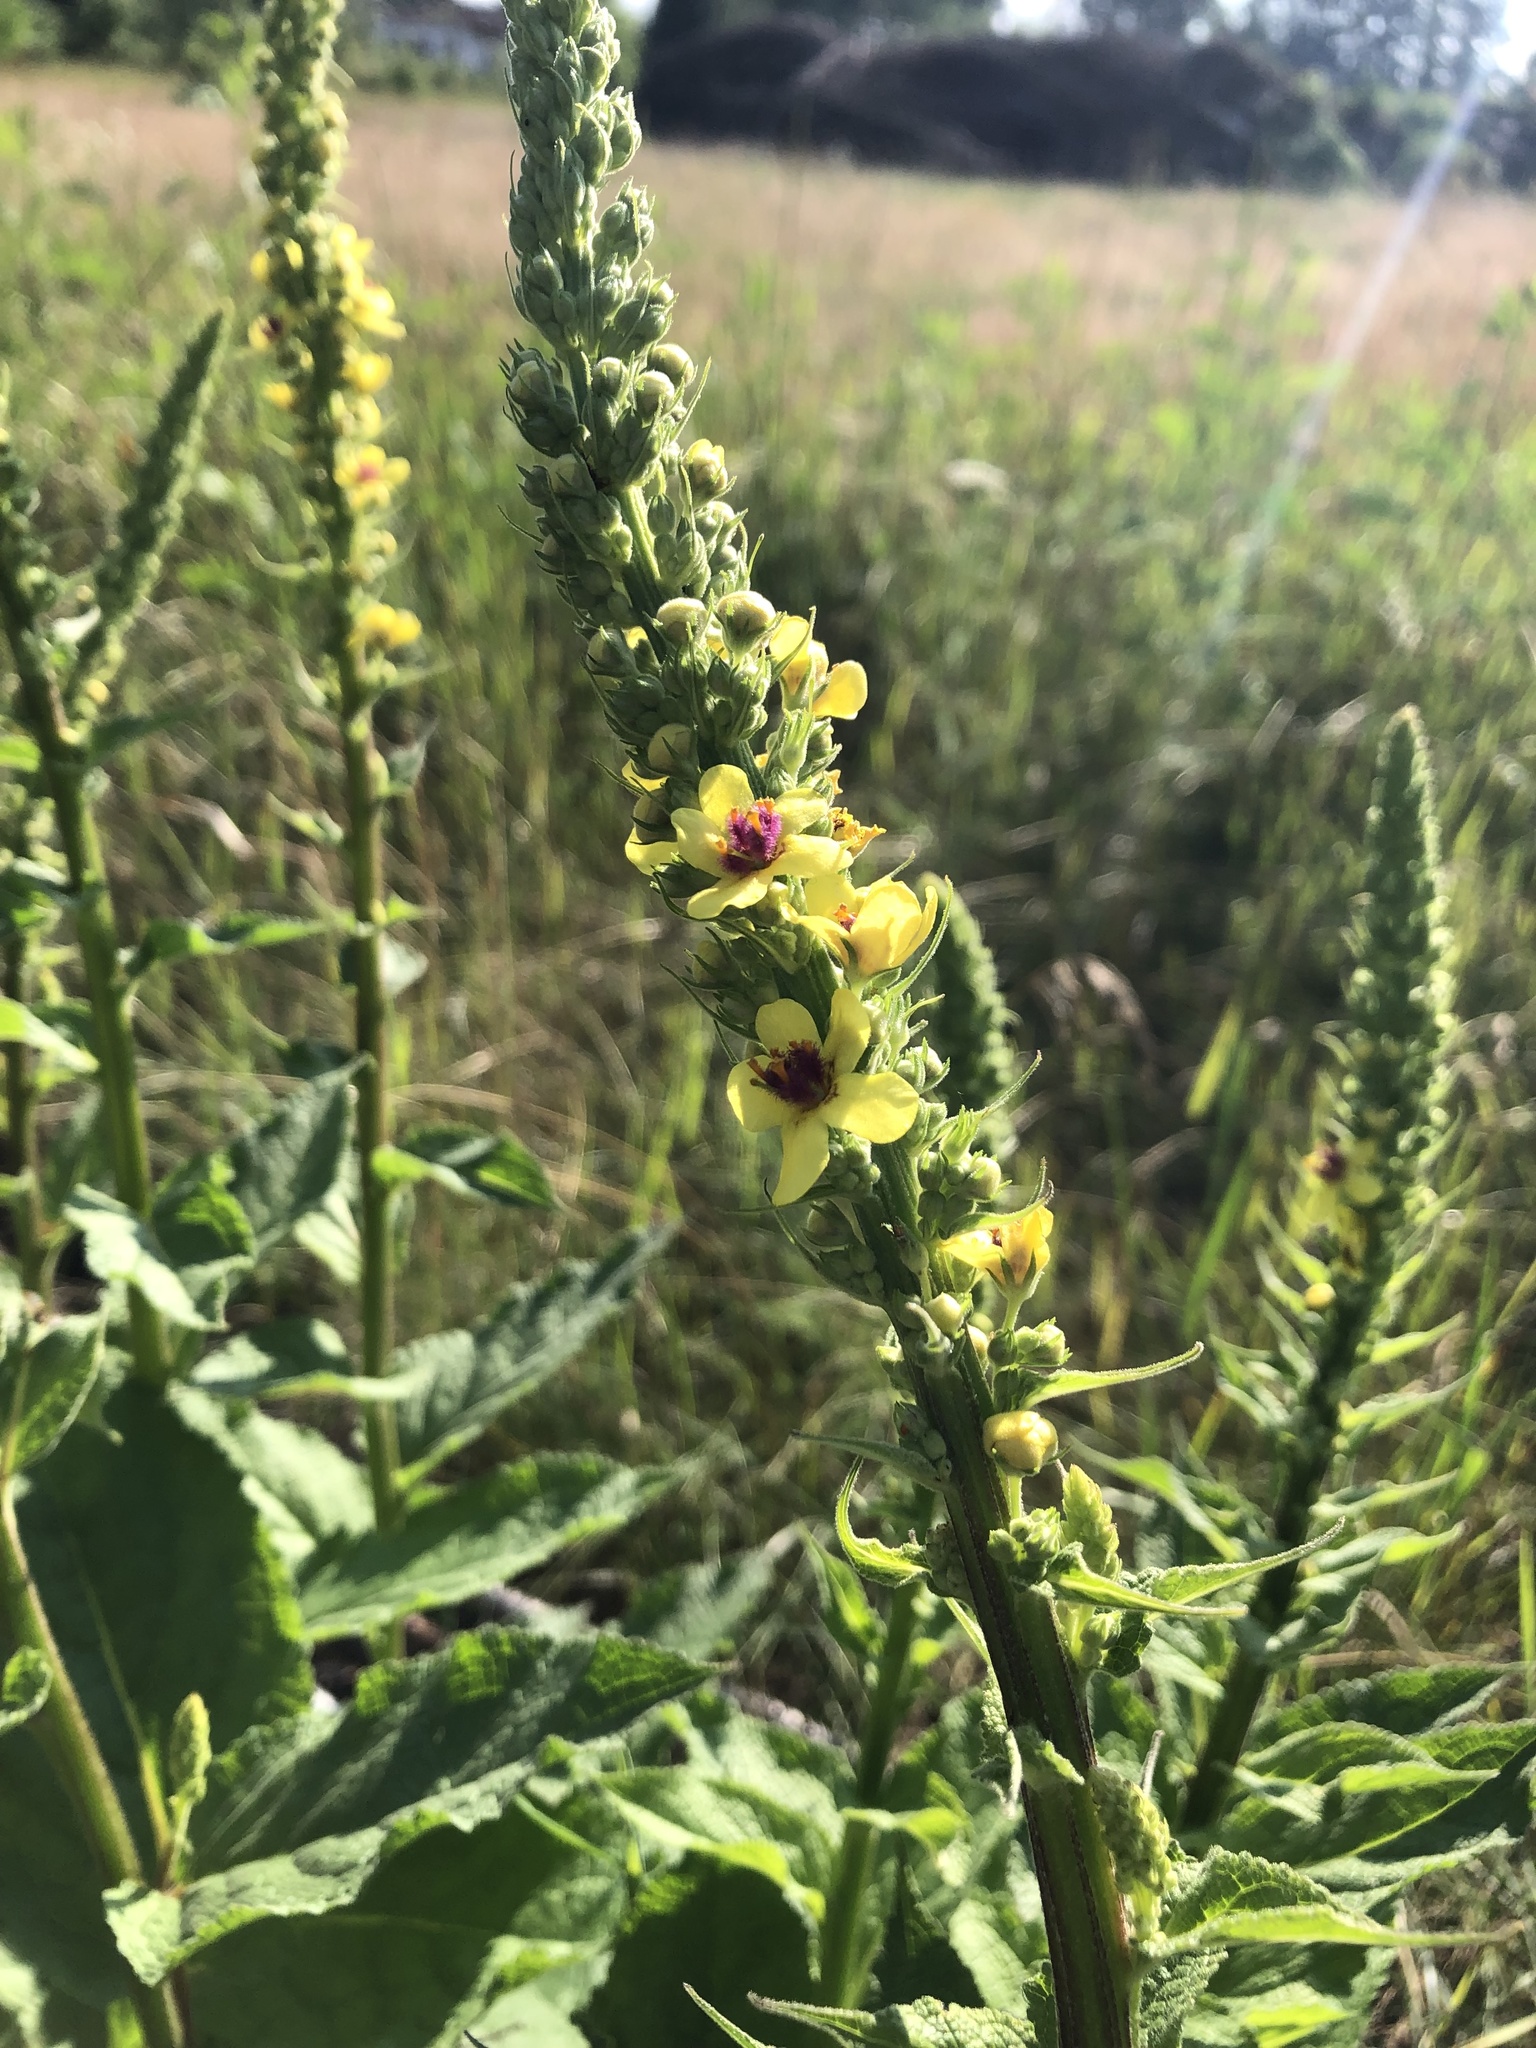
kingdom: Plantae
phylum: Tracheophyta
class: Magnoliopsida
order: Lamiales
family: Scrophulariaceae
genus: Verbascum
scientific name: Verbascum nigrum
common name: Dark mullein
